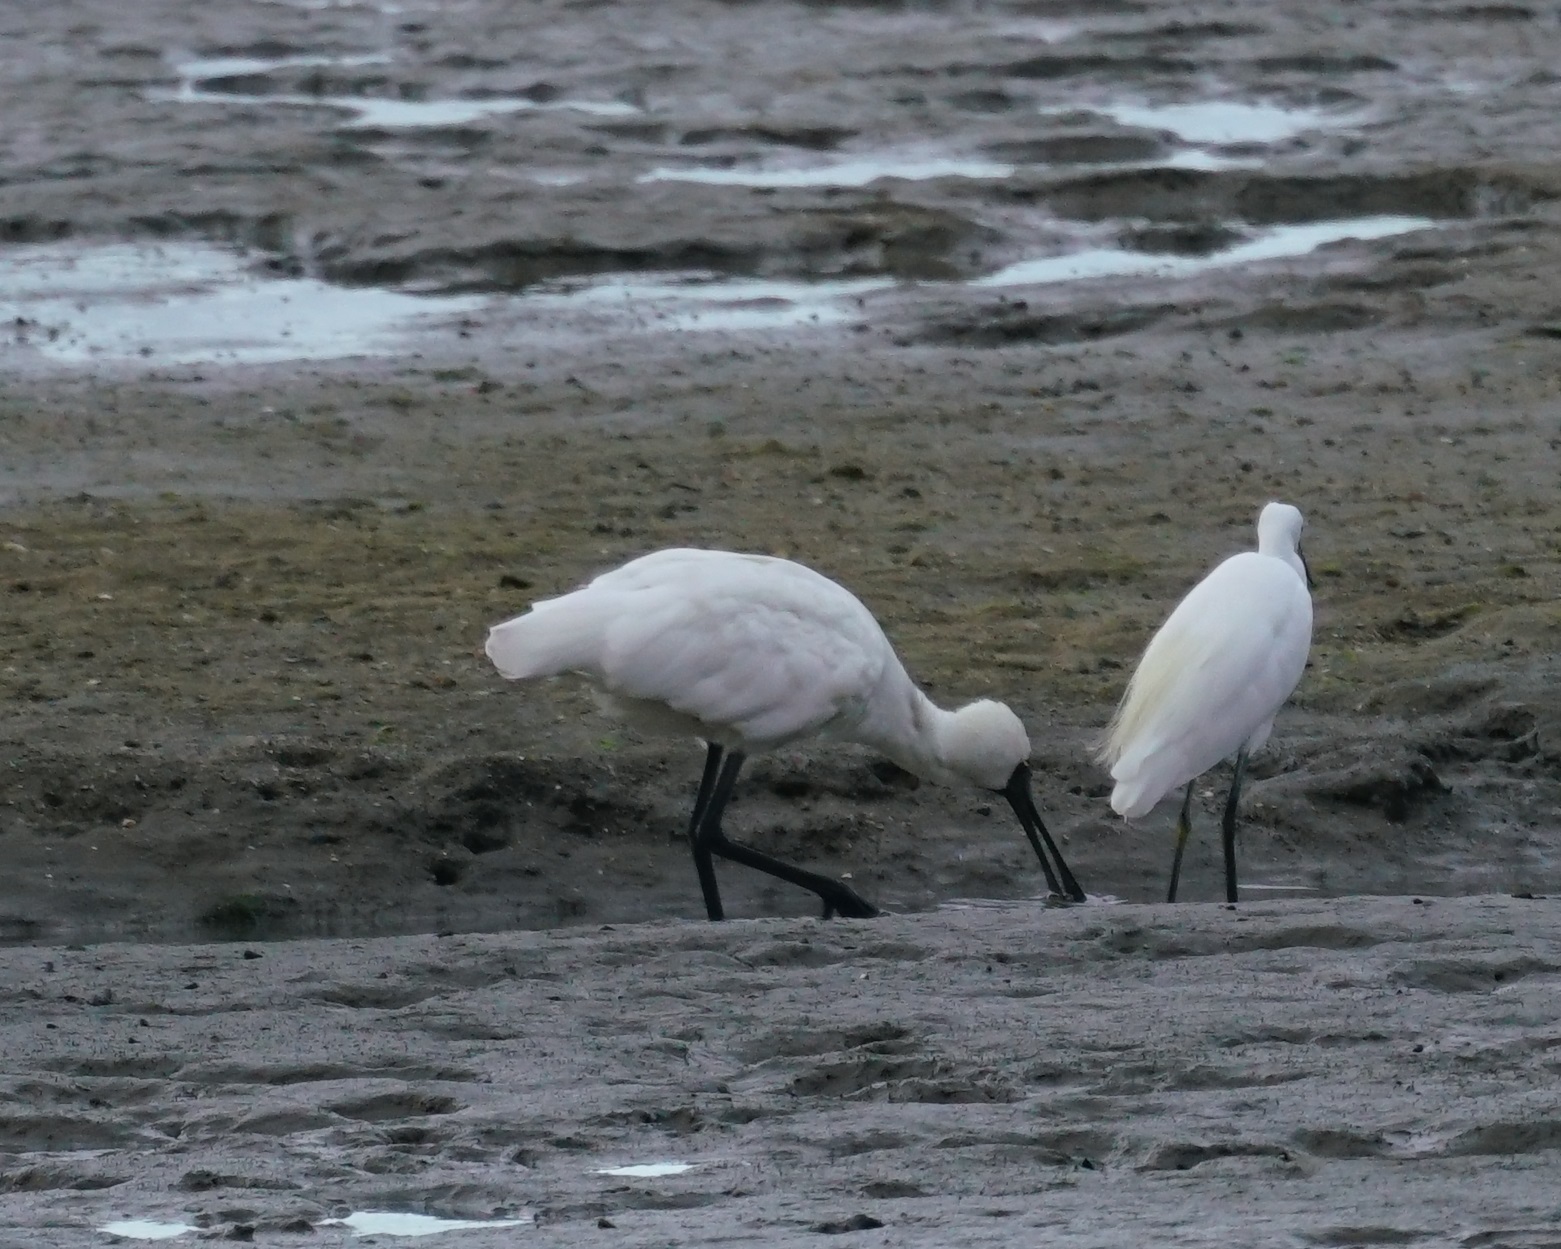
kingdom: Animalia
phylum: Chordata
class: Aves
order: Pelecaniformes
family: Threskiornithidae
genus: Platalea
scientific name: Platalea regia
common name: Royal spoonbill
